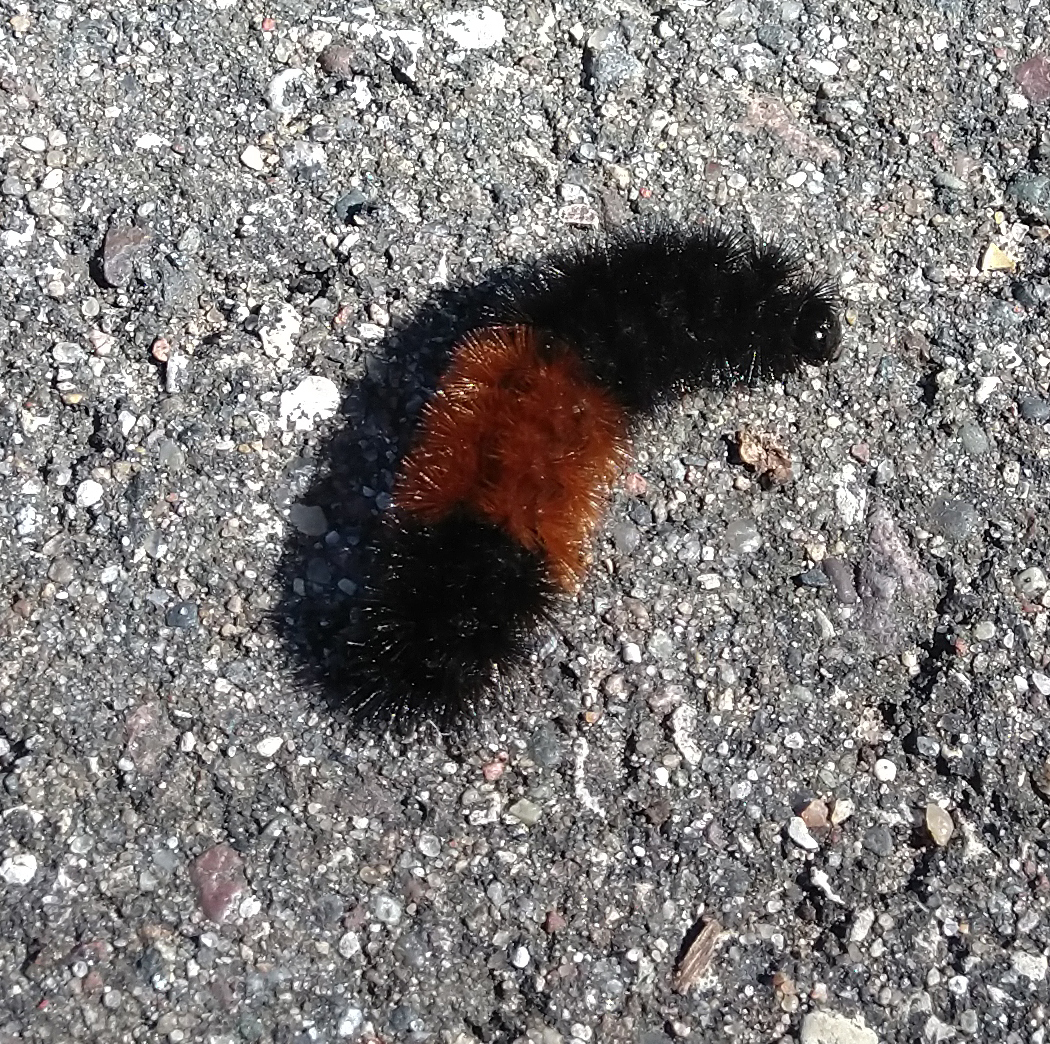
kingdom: Animalia
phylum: Arthropoda
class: Insecta
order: Lepidoptera
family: Erebidae
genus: Pyrrharctia
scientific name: Pyrrharctia isabella
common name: Isabella tiger moth
